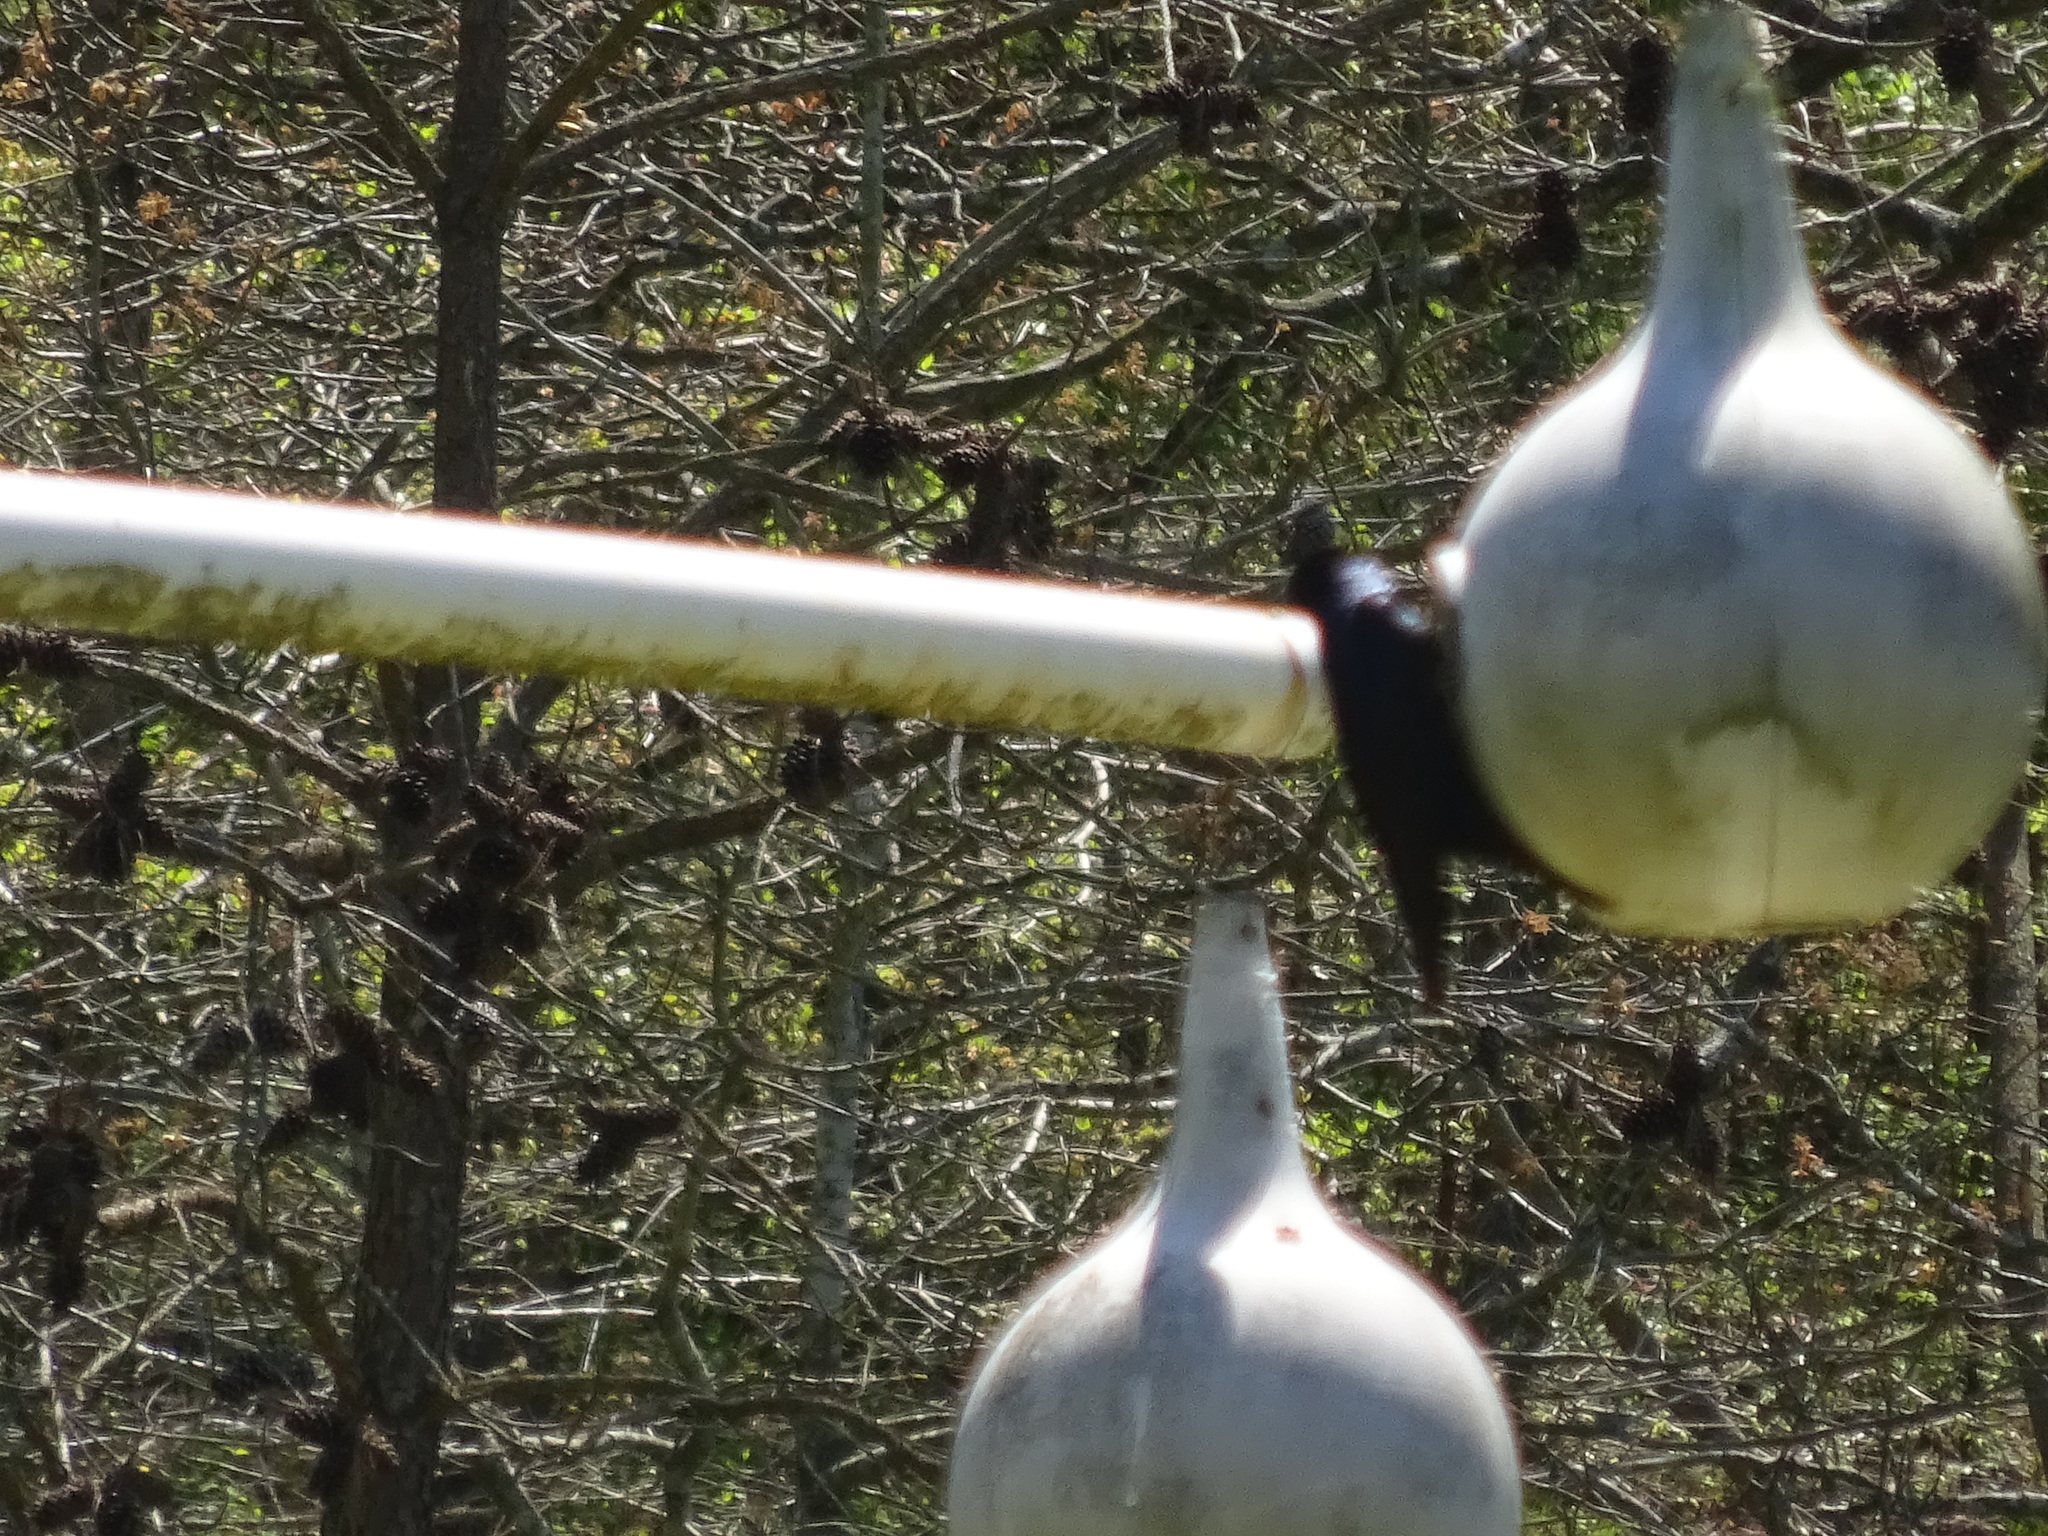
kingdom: Animalia
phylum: Chordata
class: Aves
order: Passeriformes
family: Hirundinidae
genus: Progne
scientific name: Progne subis
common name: Purple martin
